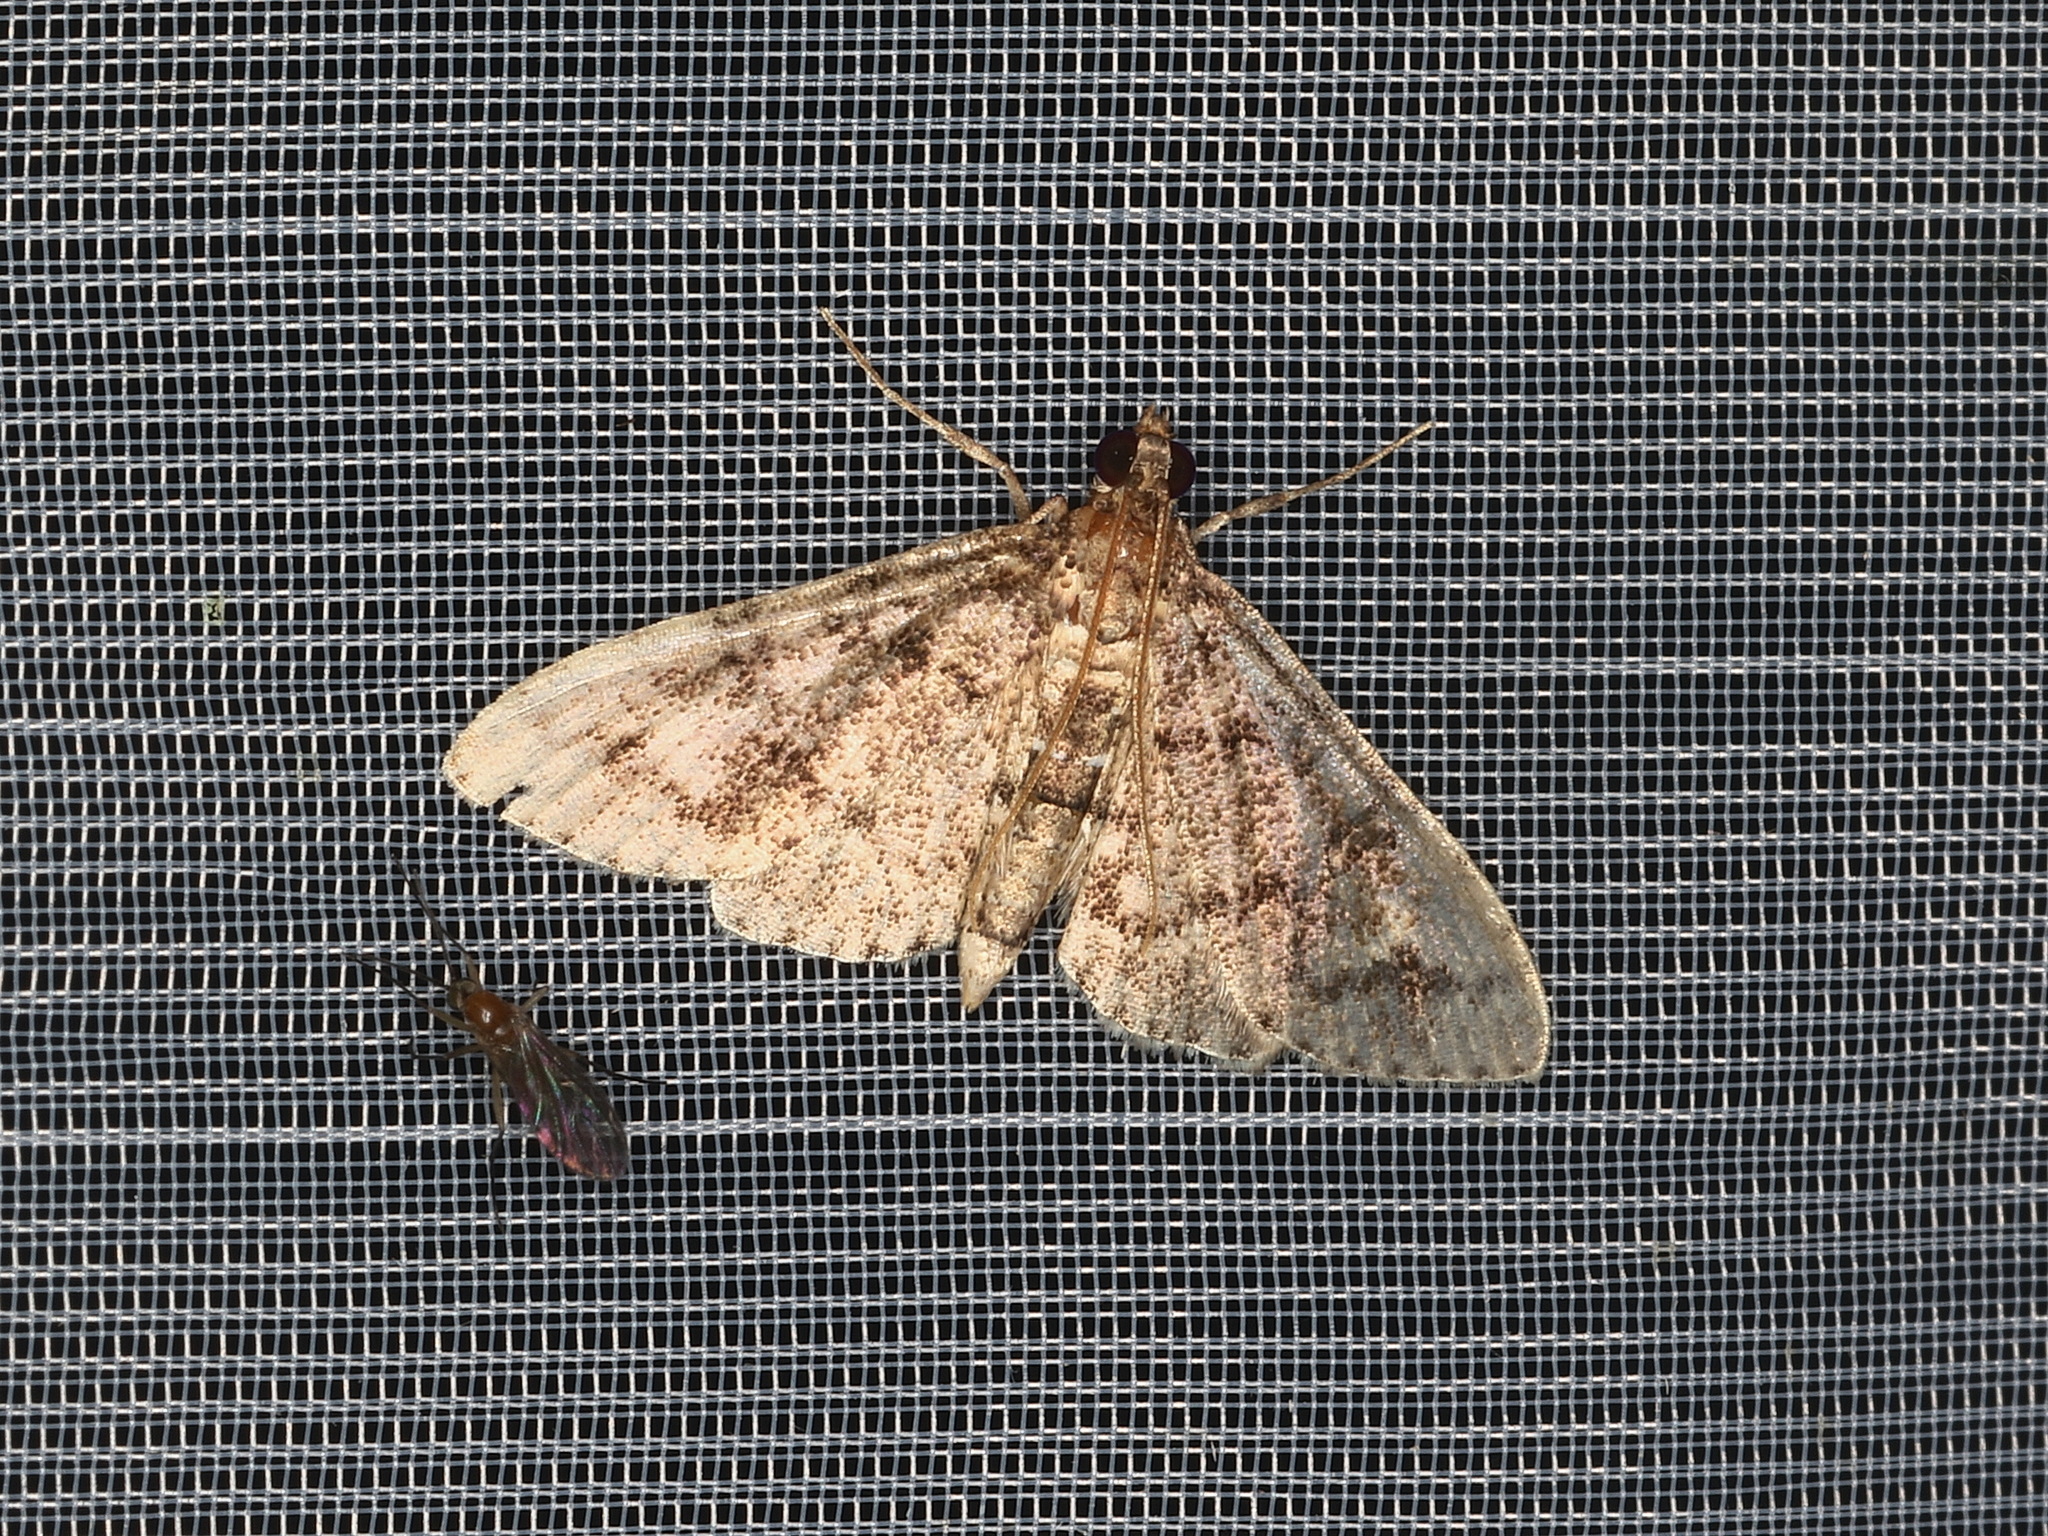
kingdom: Animalia
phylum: Arthropoda
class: Insecta
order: Lepidoptera
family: Crambidae
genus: Nacoleia
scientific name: Nacoleia rhoeoalis
